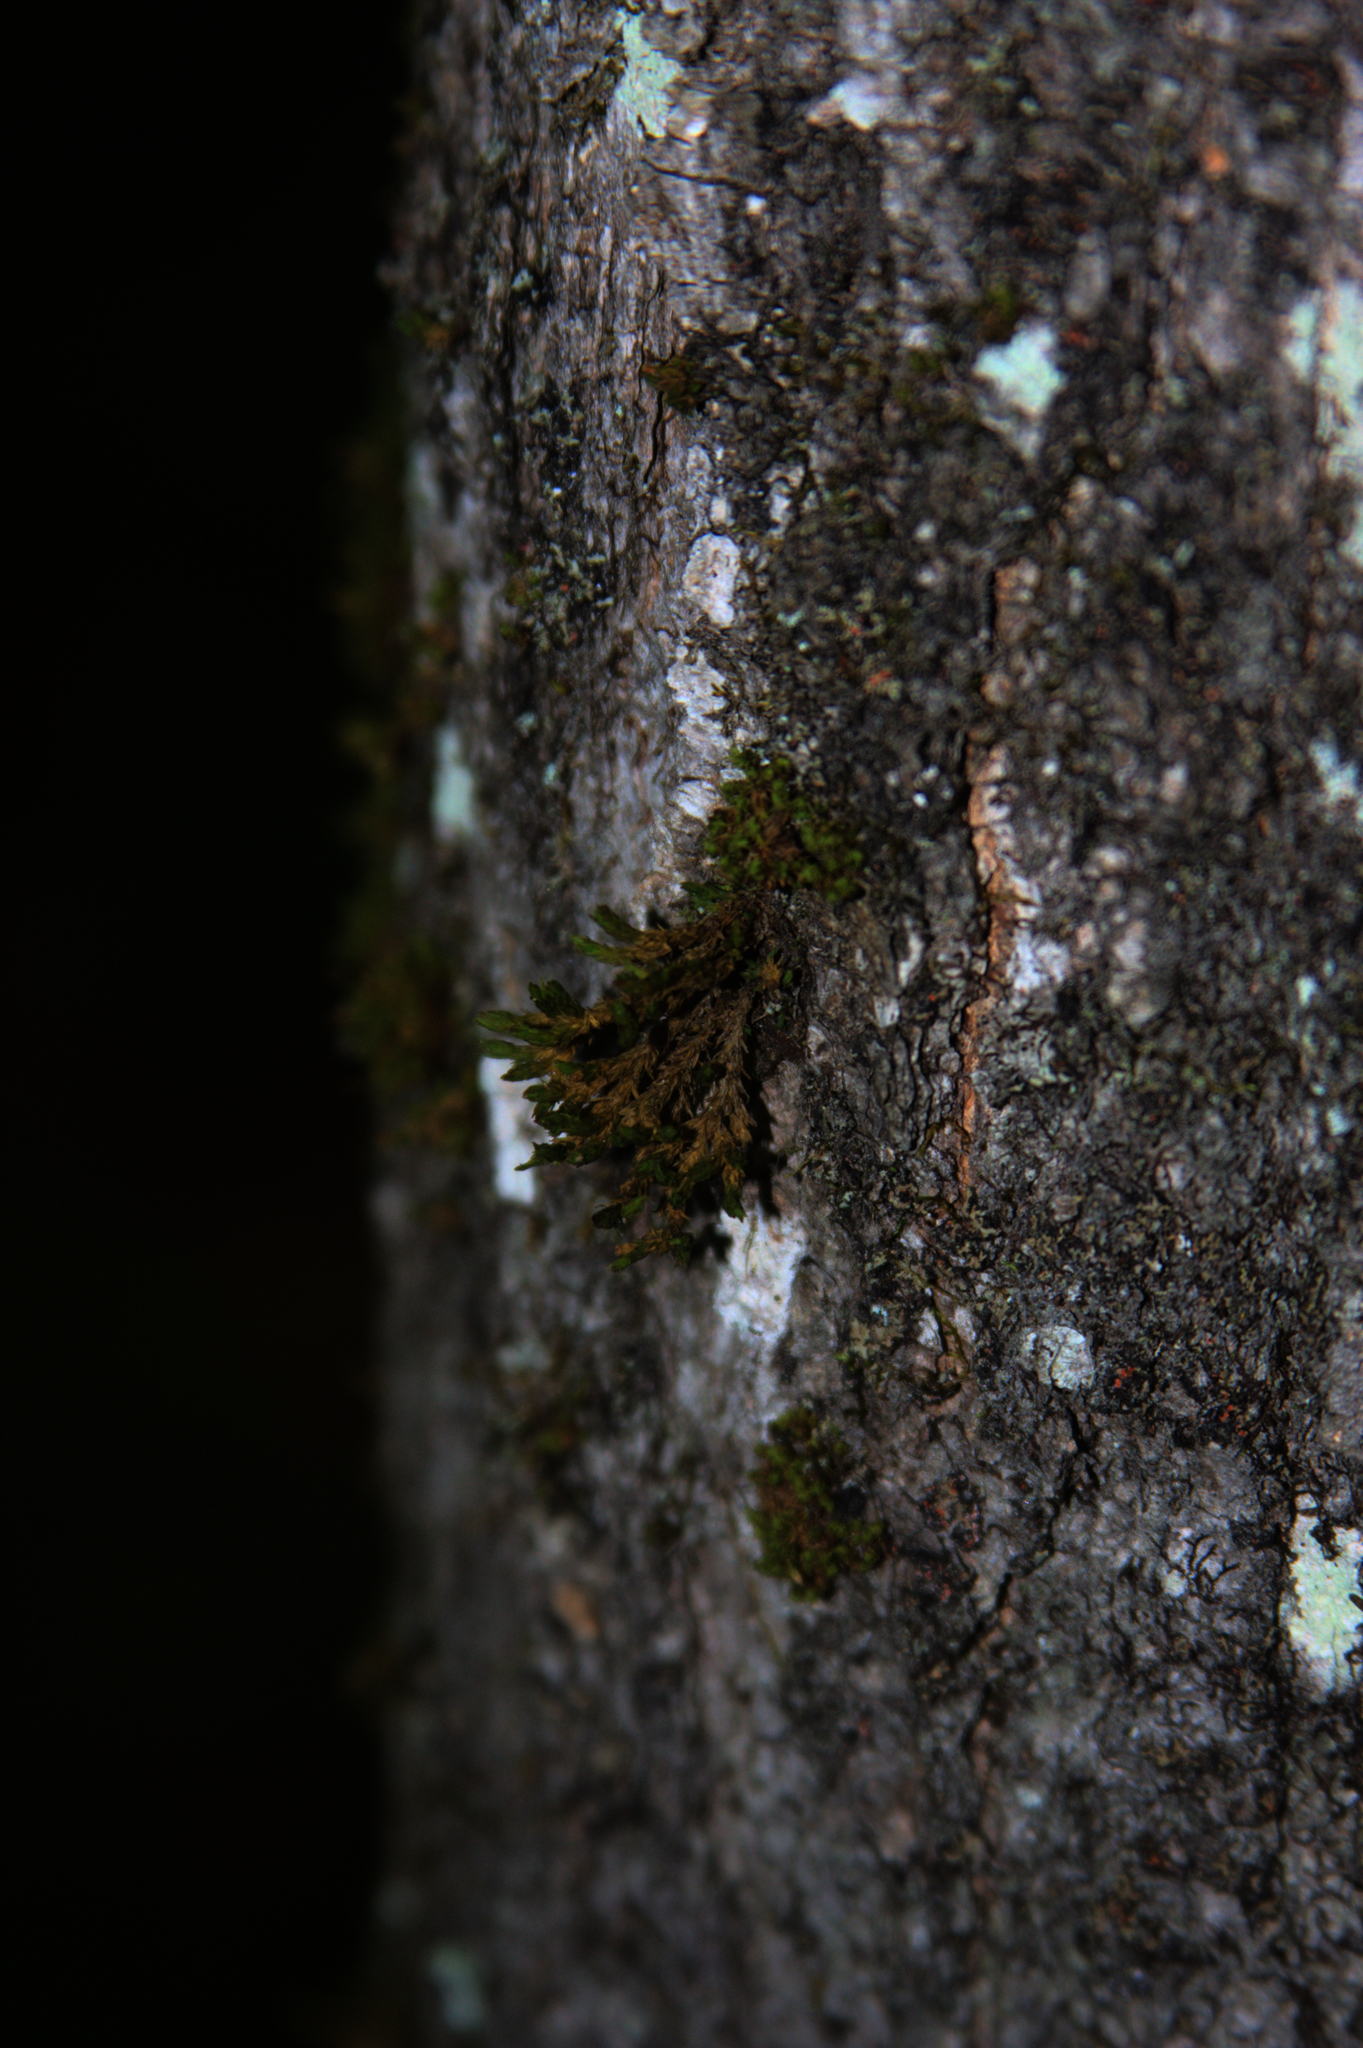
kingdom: Plantae
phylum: Bryophyta
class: Bryopsida
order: Orthotrichales
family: Orthotrichaceae
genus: Ulota
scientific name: Ulota crispa
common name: Crisped pincushion moss
